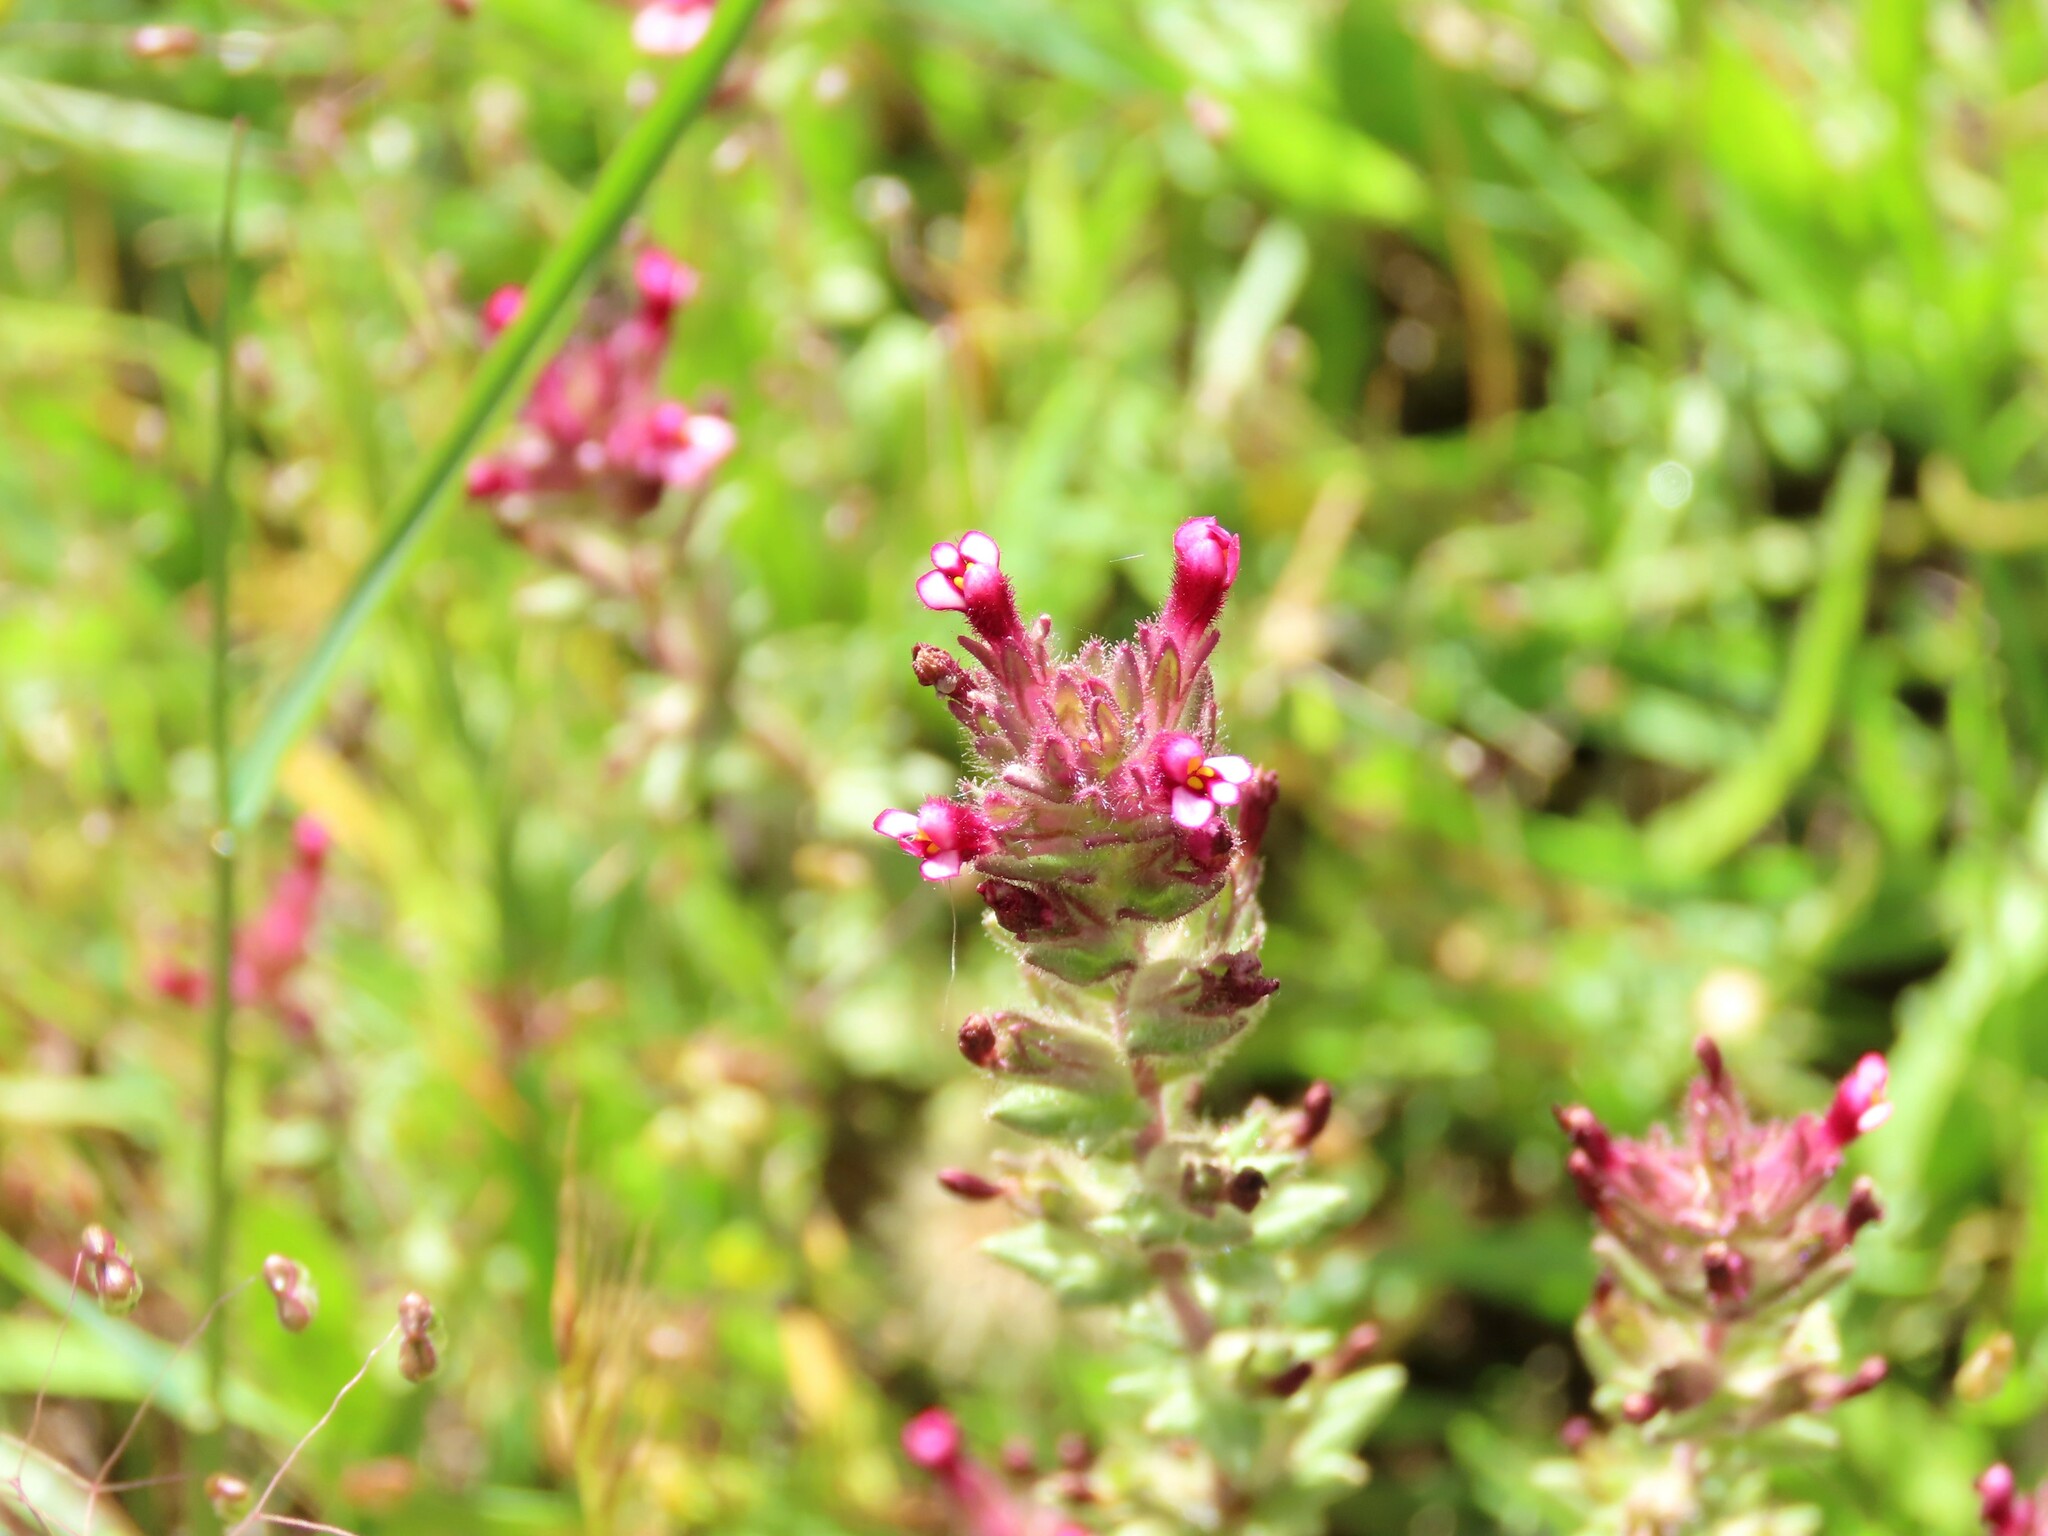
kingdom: Plantae
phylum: Tracheophyta
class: Magnoliopsida
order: Lamiales
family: Orobanchaceae
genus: Parentucellia
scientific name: Parentucellia latifolia
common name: Broadleaf glandweed
